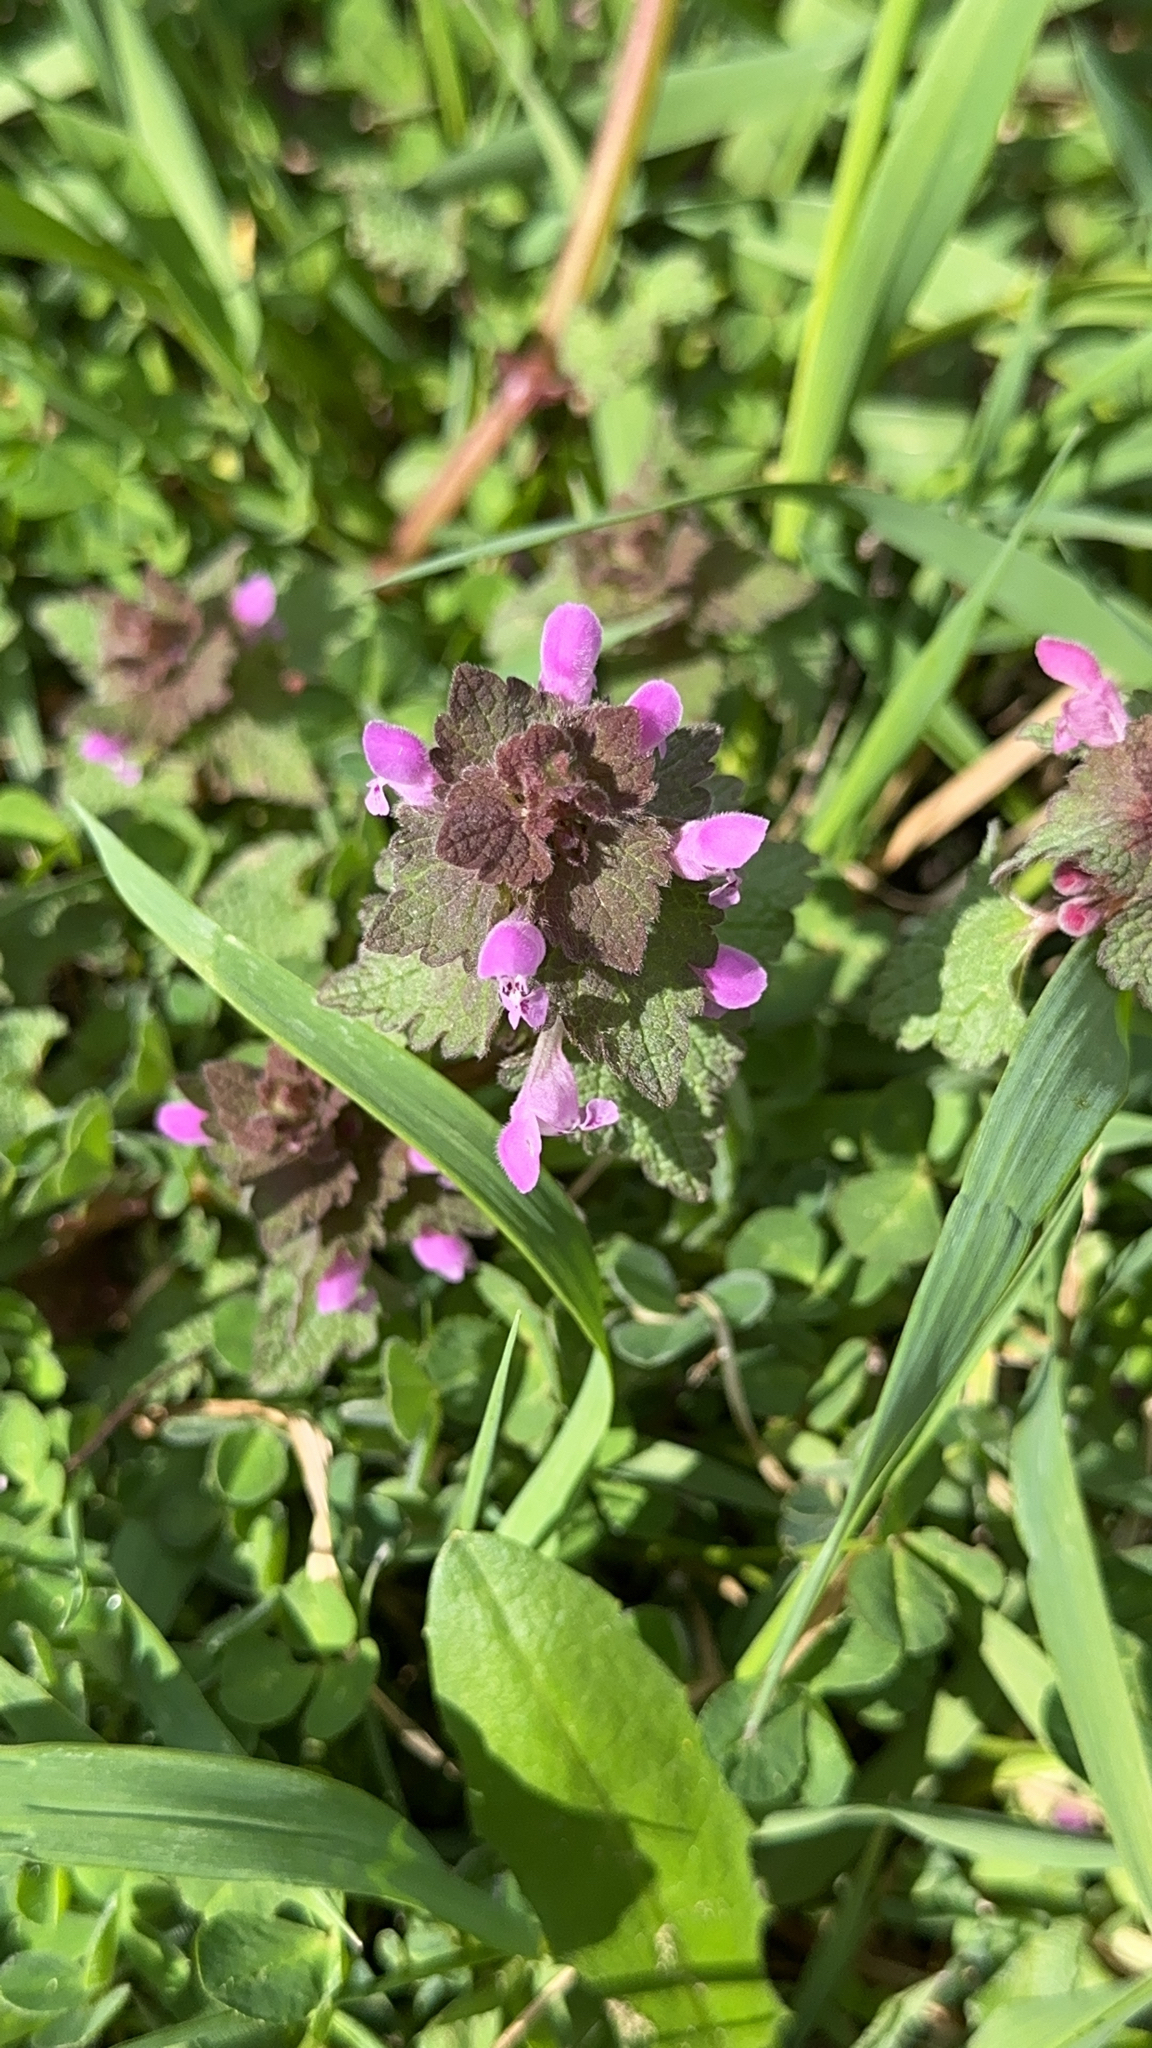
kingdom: Plantae
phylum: Tracheophyta
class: Magnoliopsida
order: Lamiales
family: Lamiaceae
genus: Lamium
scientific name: Lamium purpureum
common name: Red dead-nettle
